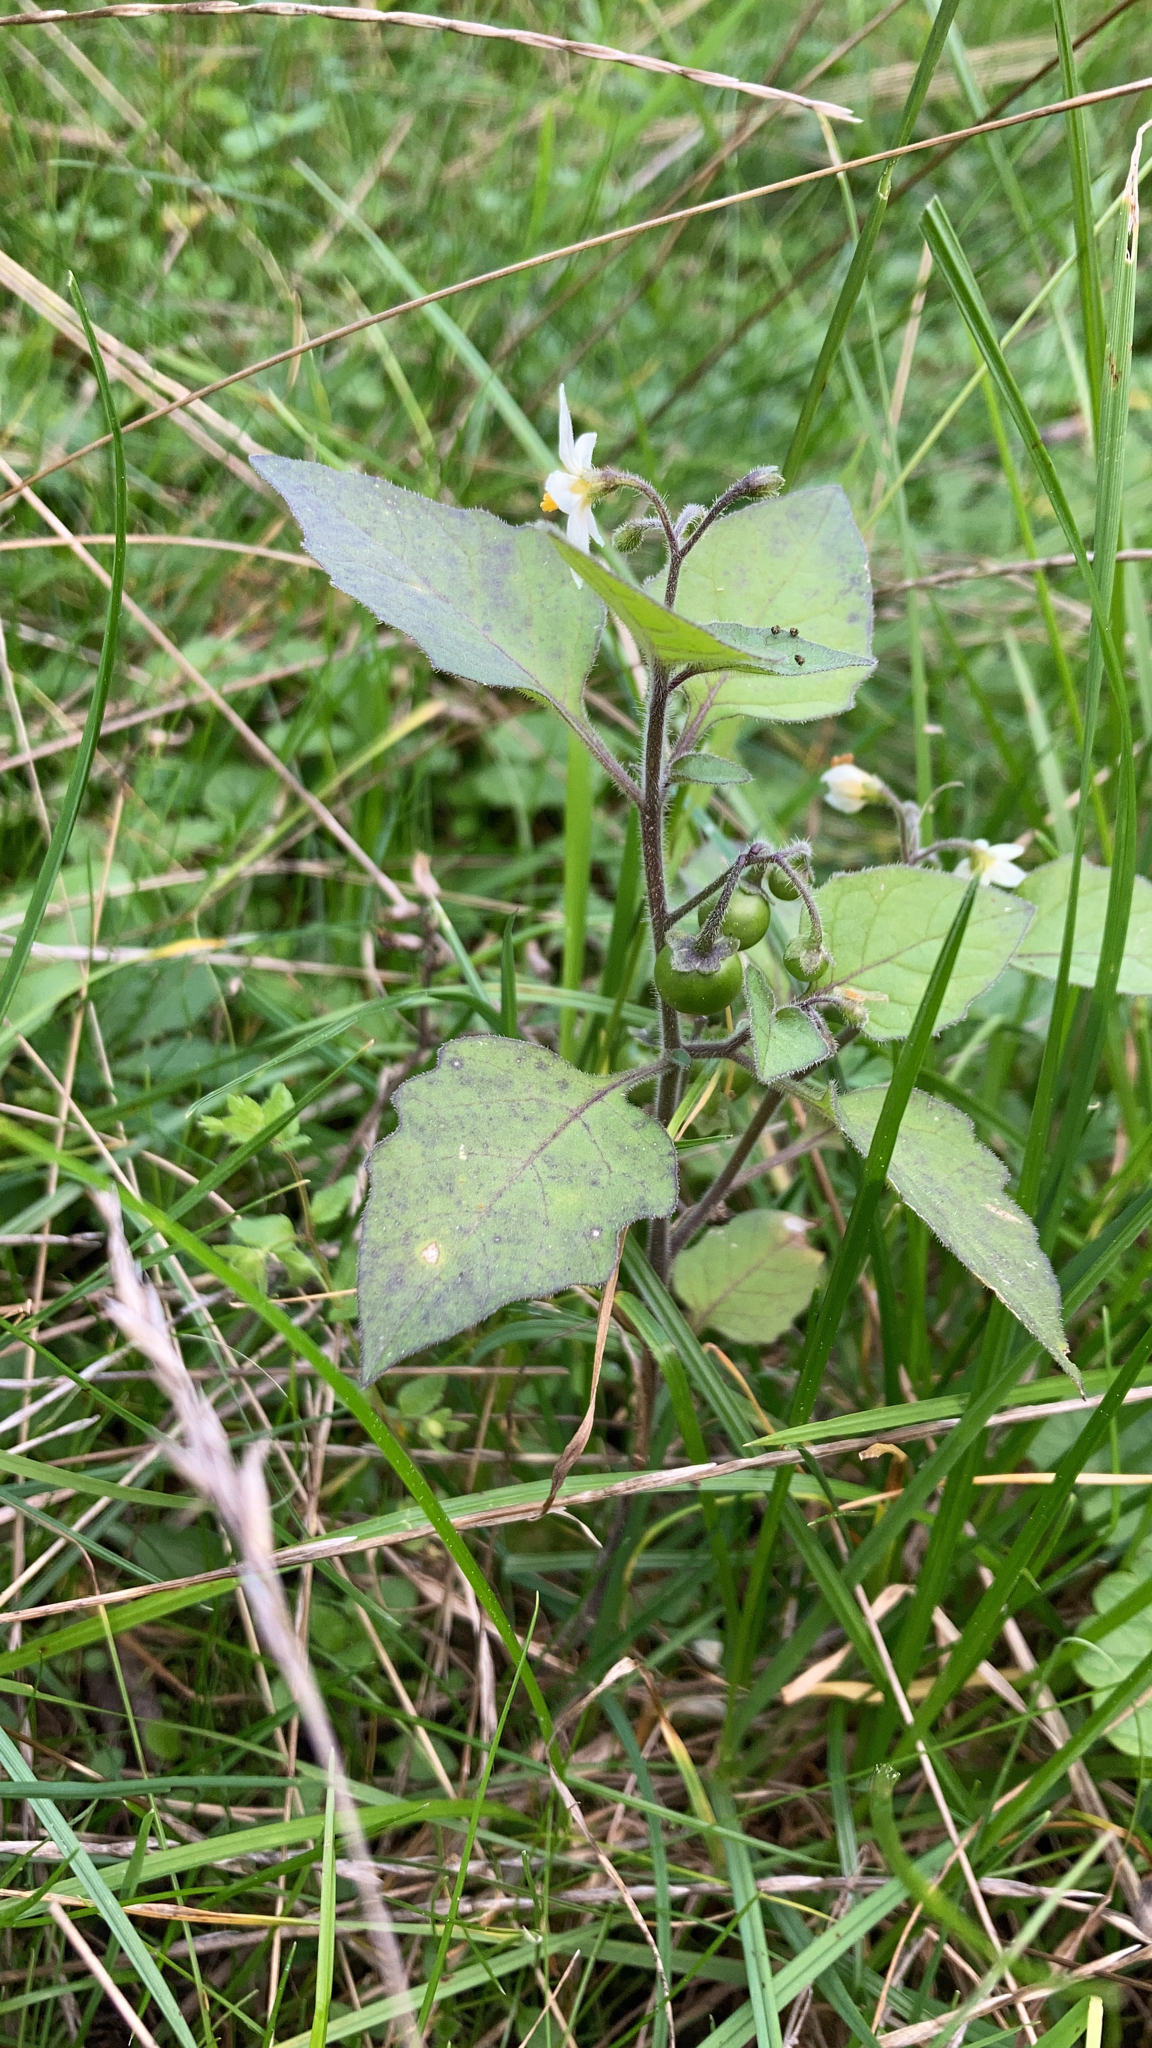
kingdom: Plantae
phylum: Tracheophyta
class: Magnoliopsida
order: Solanales
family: Solanaceae
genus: Solanum
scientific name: Solanum nigrum
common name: Black nightshade
